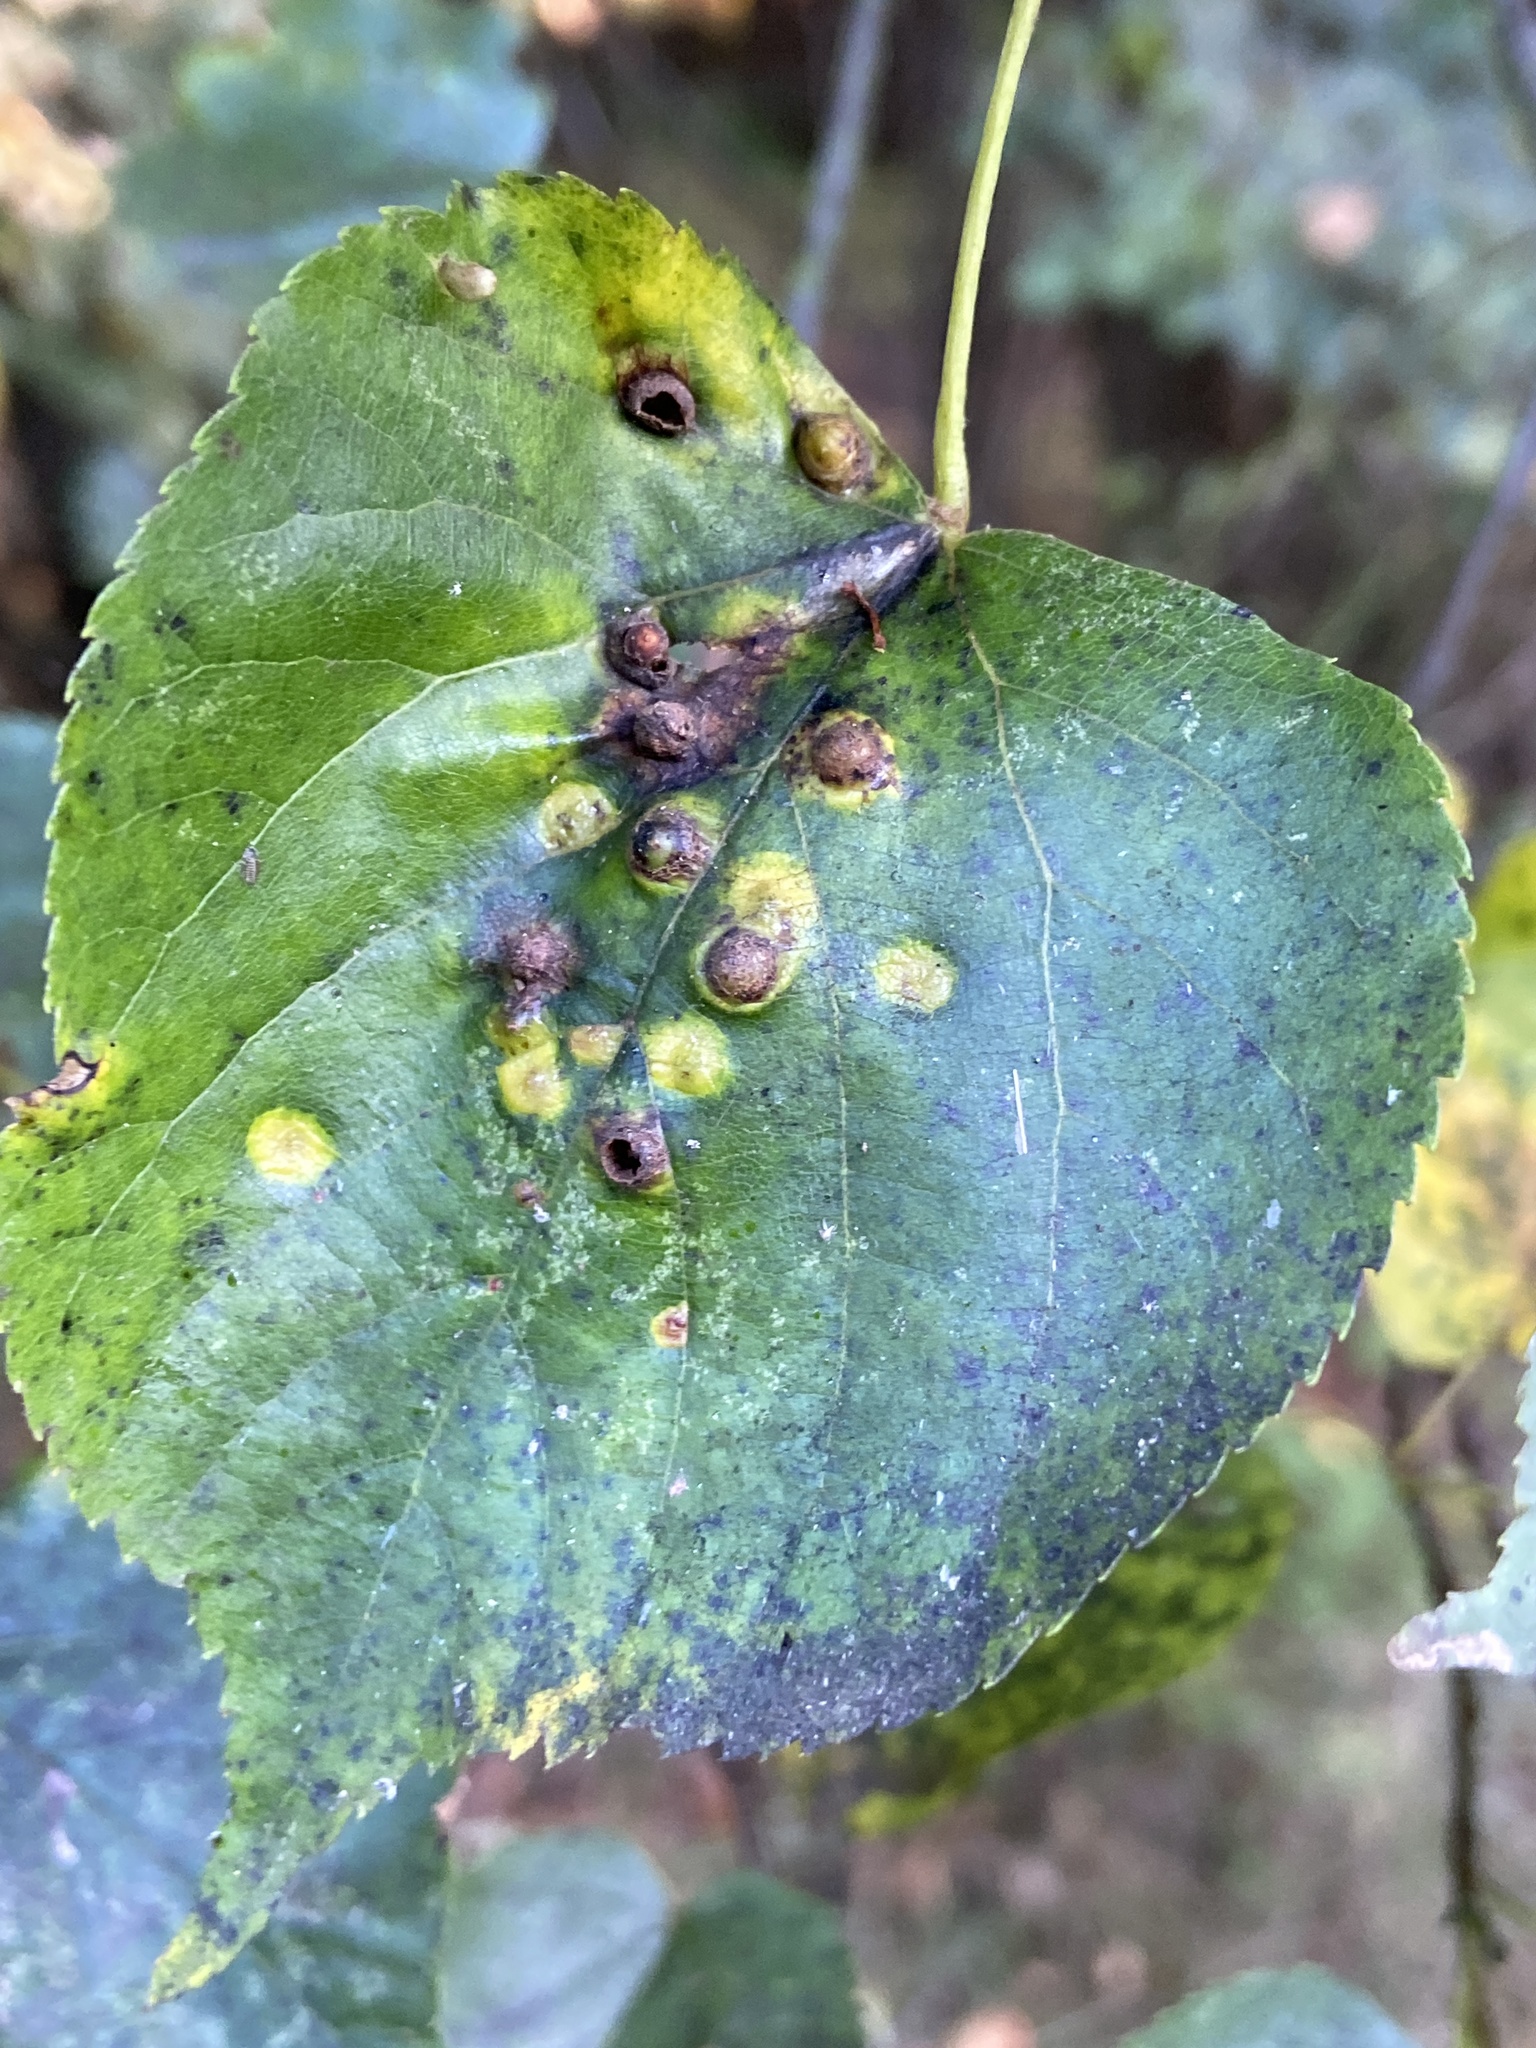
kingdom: Animalia
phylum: Arthropoda
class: Insecta
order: Diptera
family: Cecidomyiidae
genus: Didymomyia
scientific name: Didymomyia tiliacea
